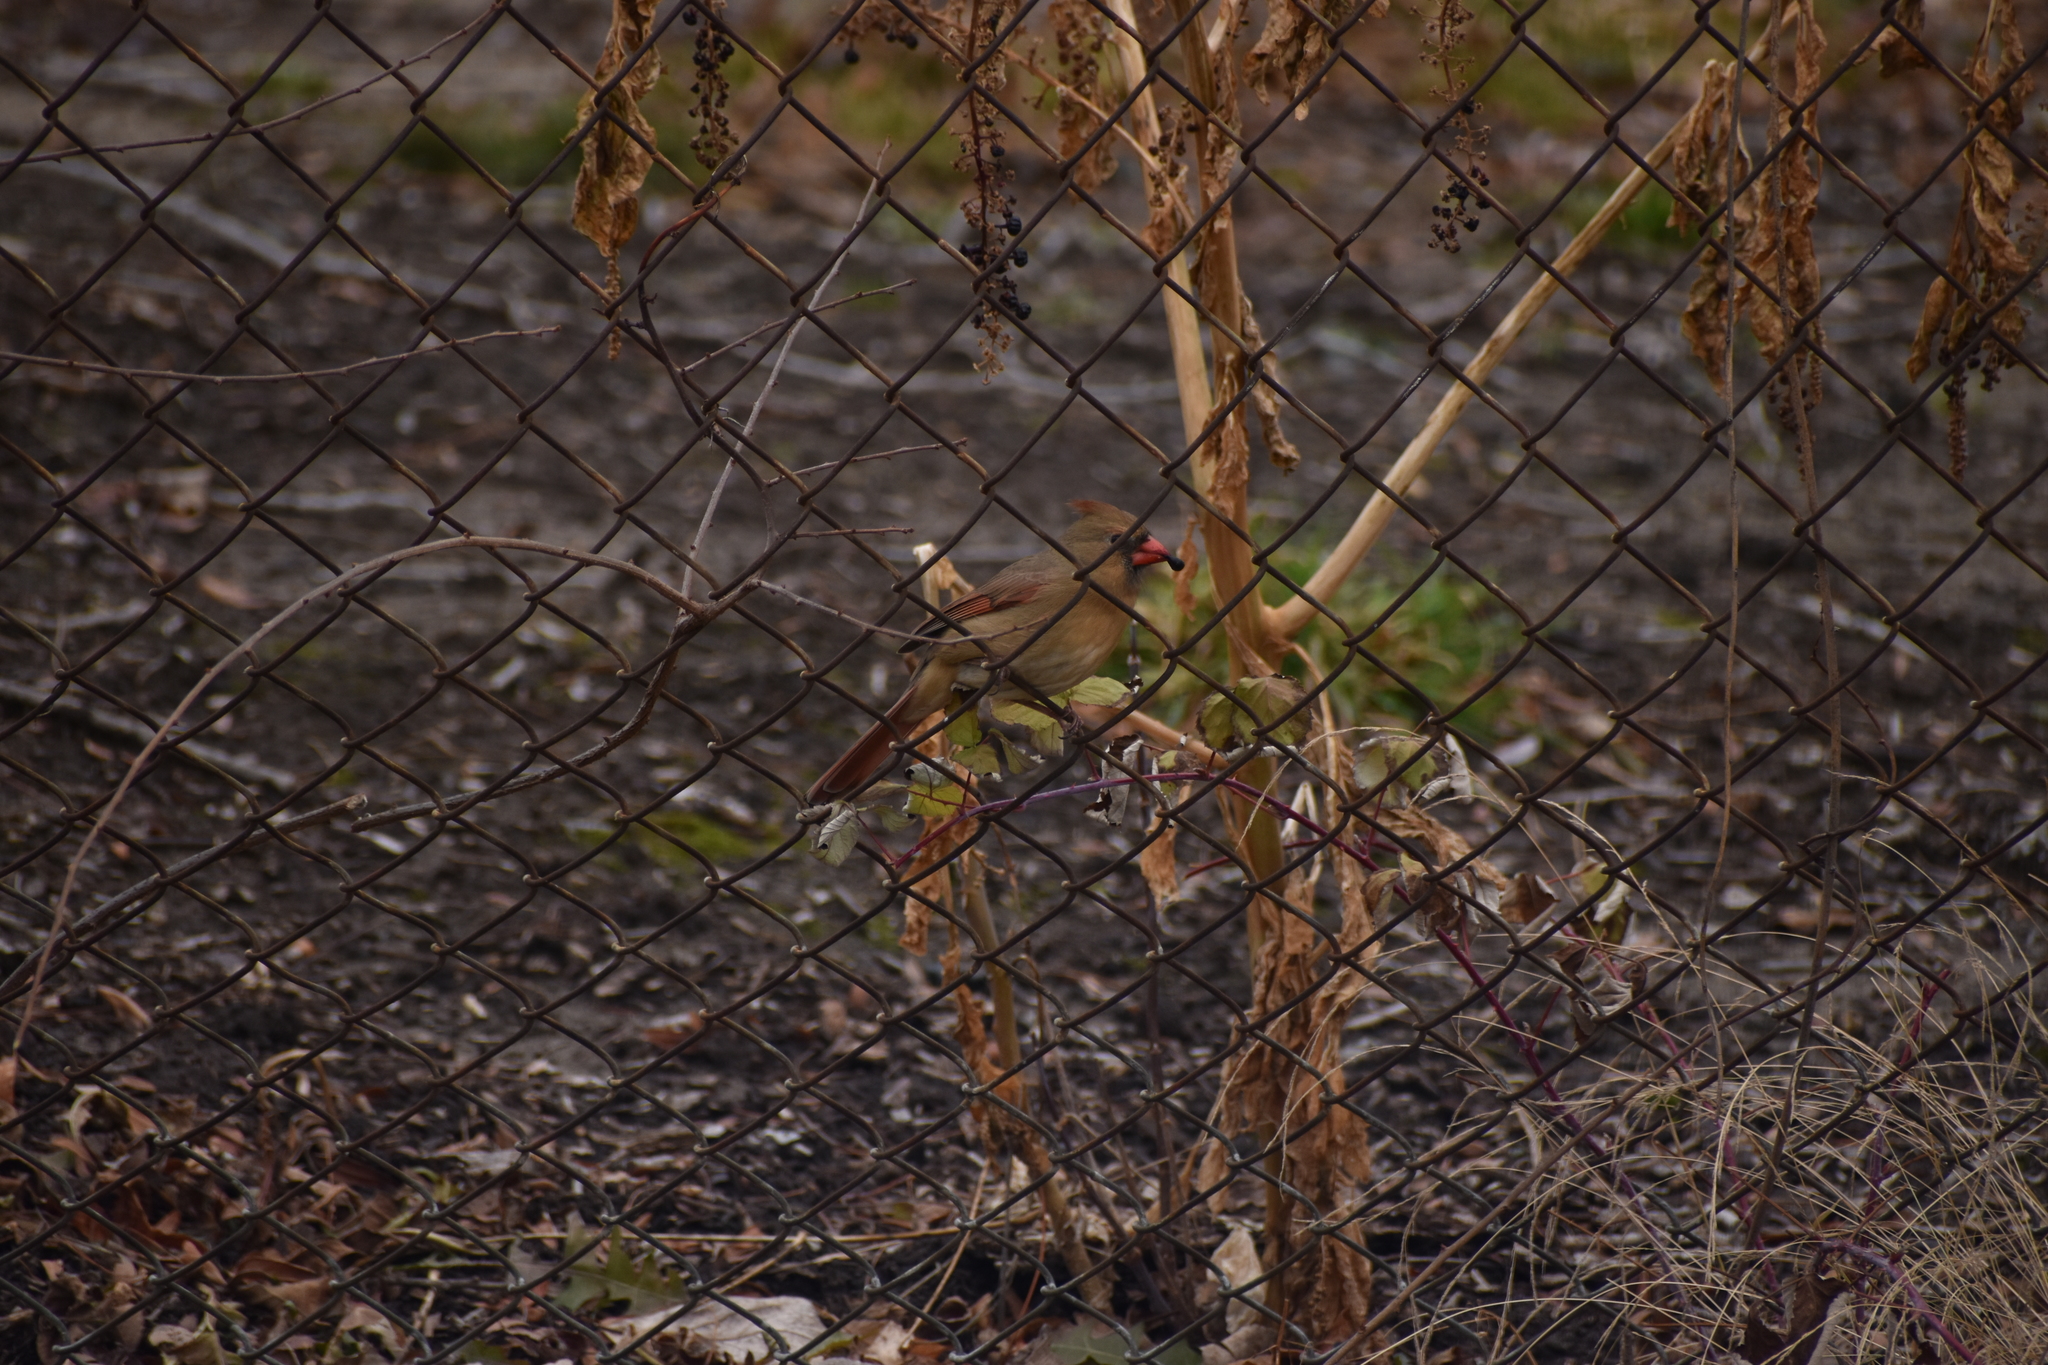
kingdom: Animalia
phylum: Chordata
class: Aves
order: Passeriformes
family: Cardinalidae
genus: Cardinalis
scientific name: Cardinalis cardinalis
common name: Northern cardinal
